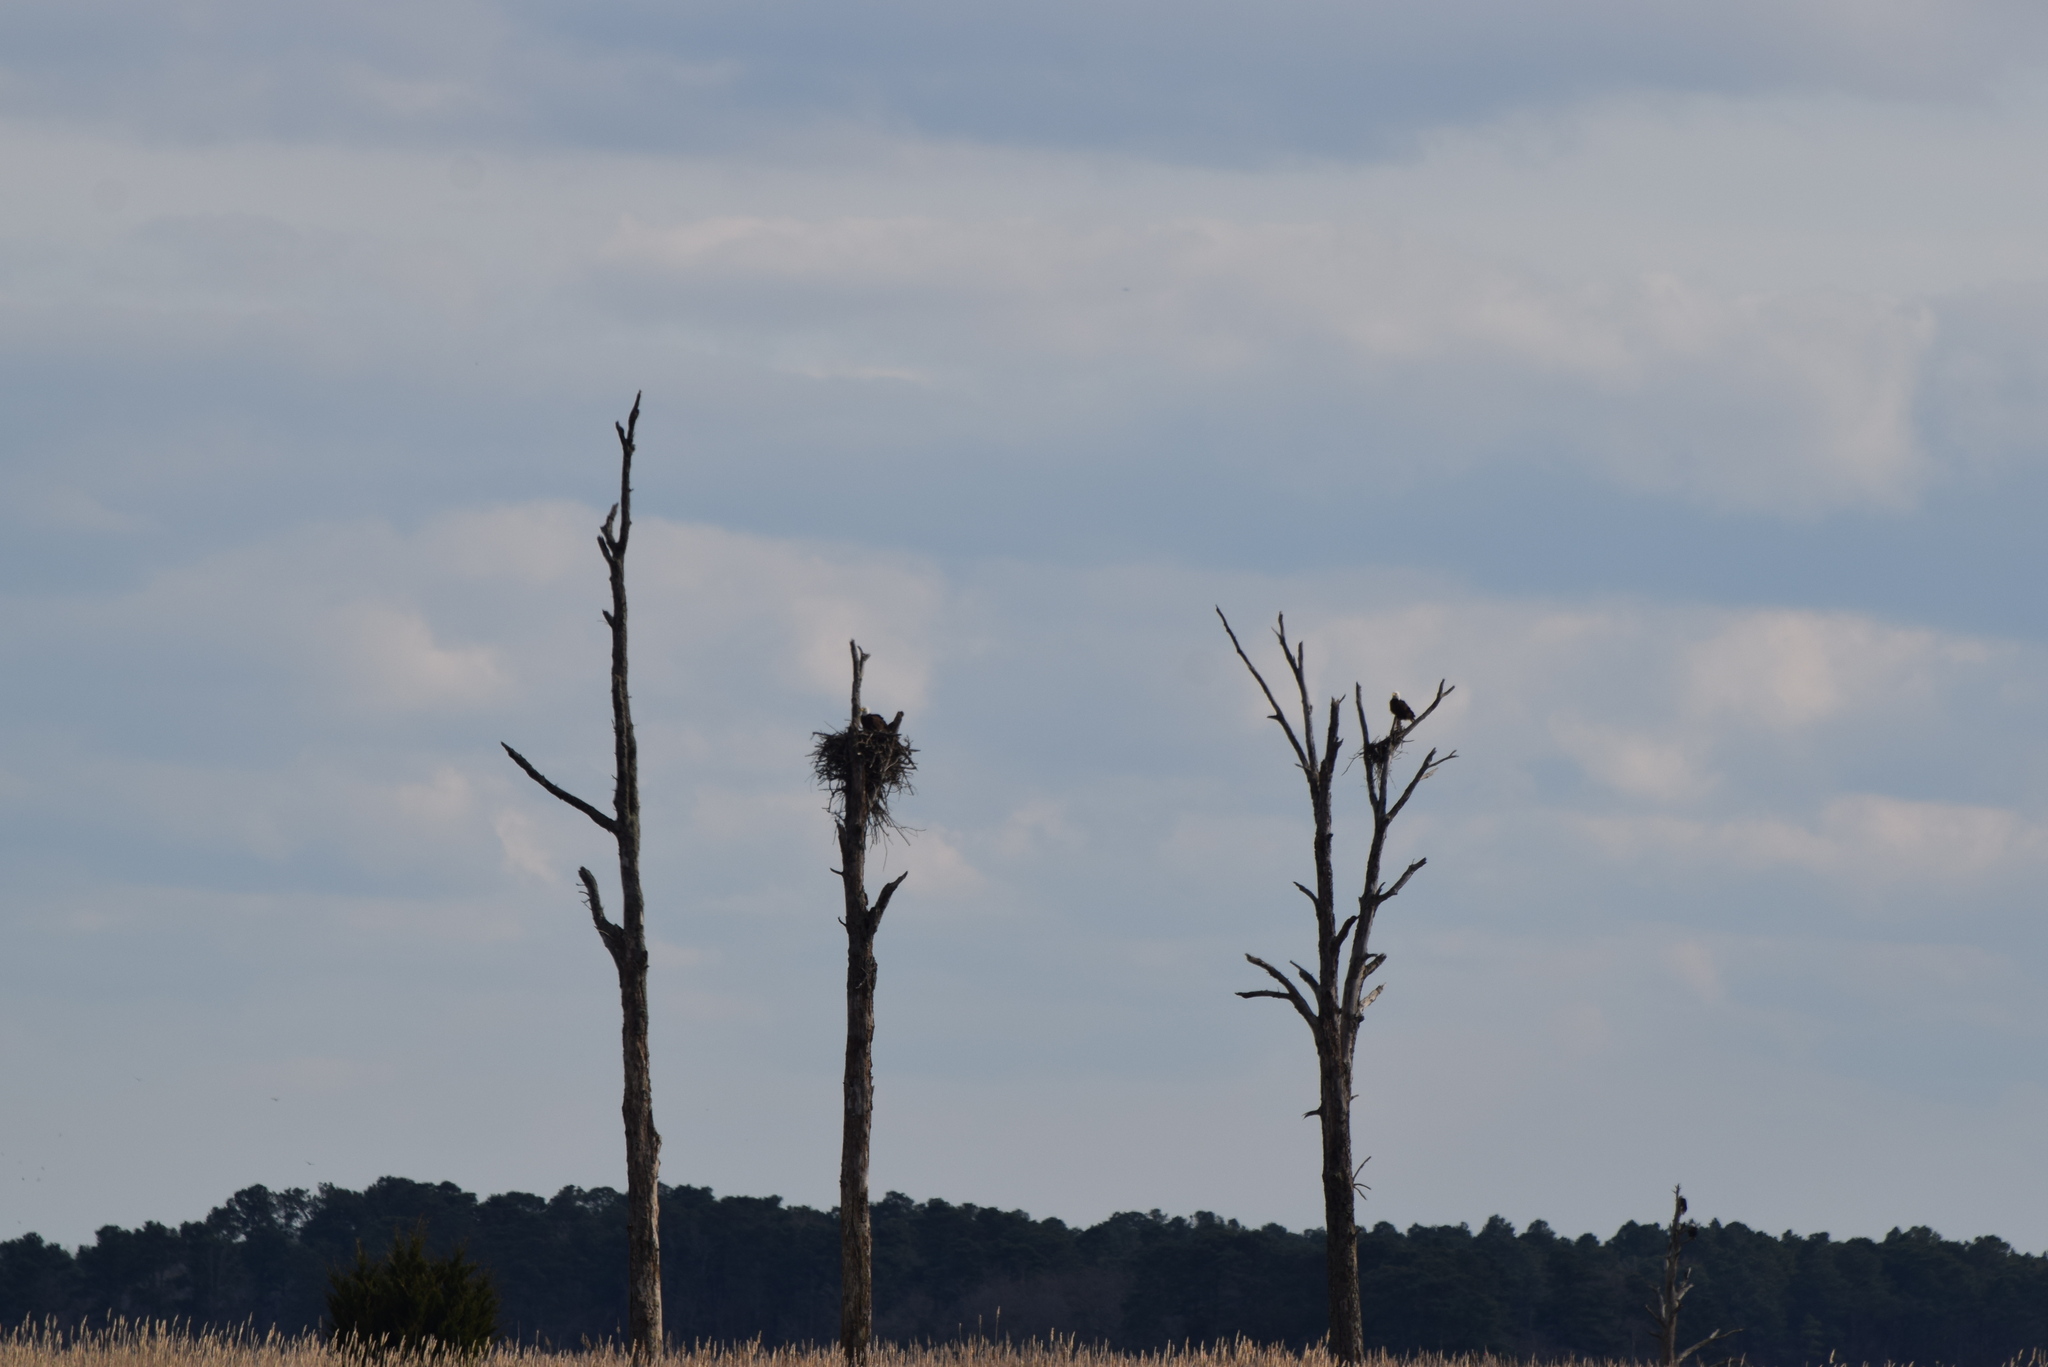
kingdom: Animalia
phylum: Chordata
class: Aves
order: Accipitriformes
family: Accipitridae
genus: Haliaeetus
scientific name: Haliaeetus leucocephalus
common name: Bald eagle
